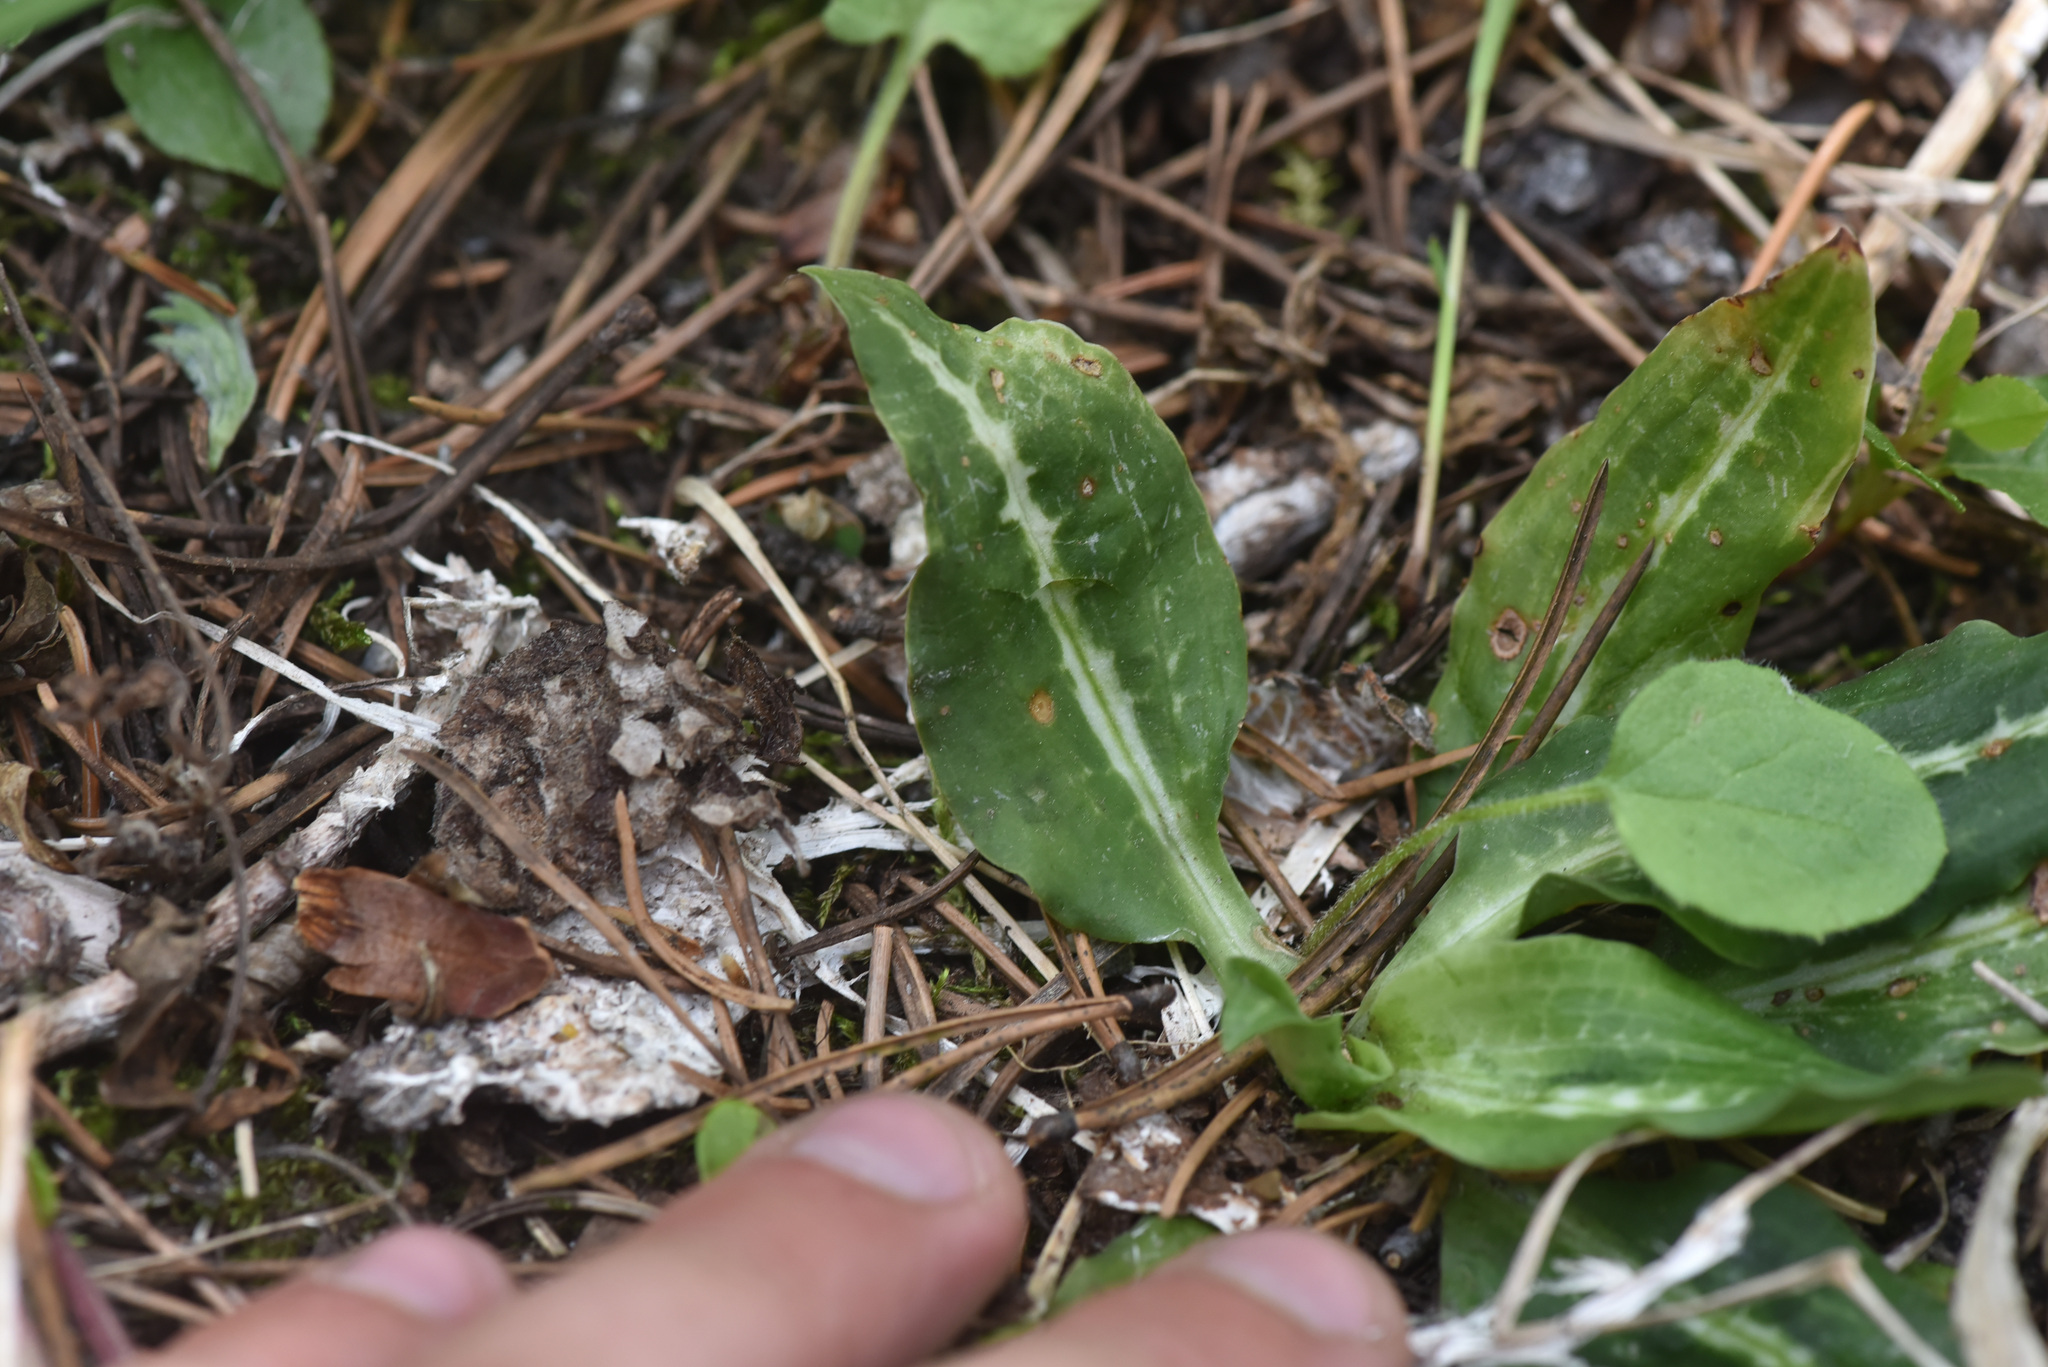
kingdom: Plantae
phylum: Tracheophyta
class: Liliopsida
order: Asparagales
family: Orchidaceae
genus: Goodyera
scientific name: Goodyera oblongifolia
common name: Giant rattlesnake-plantain
